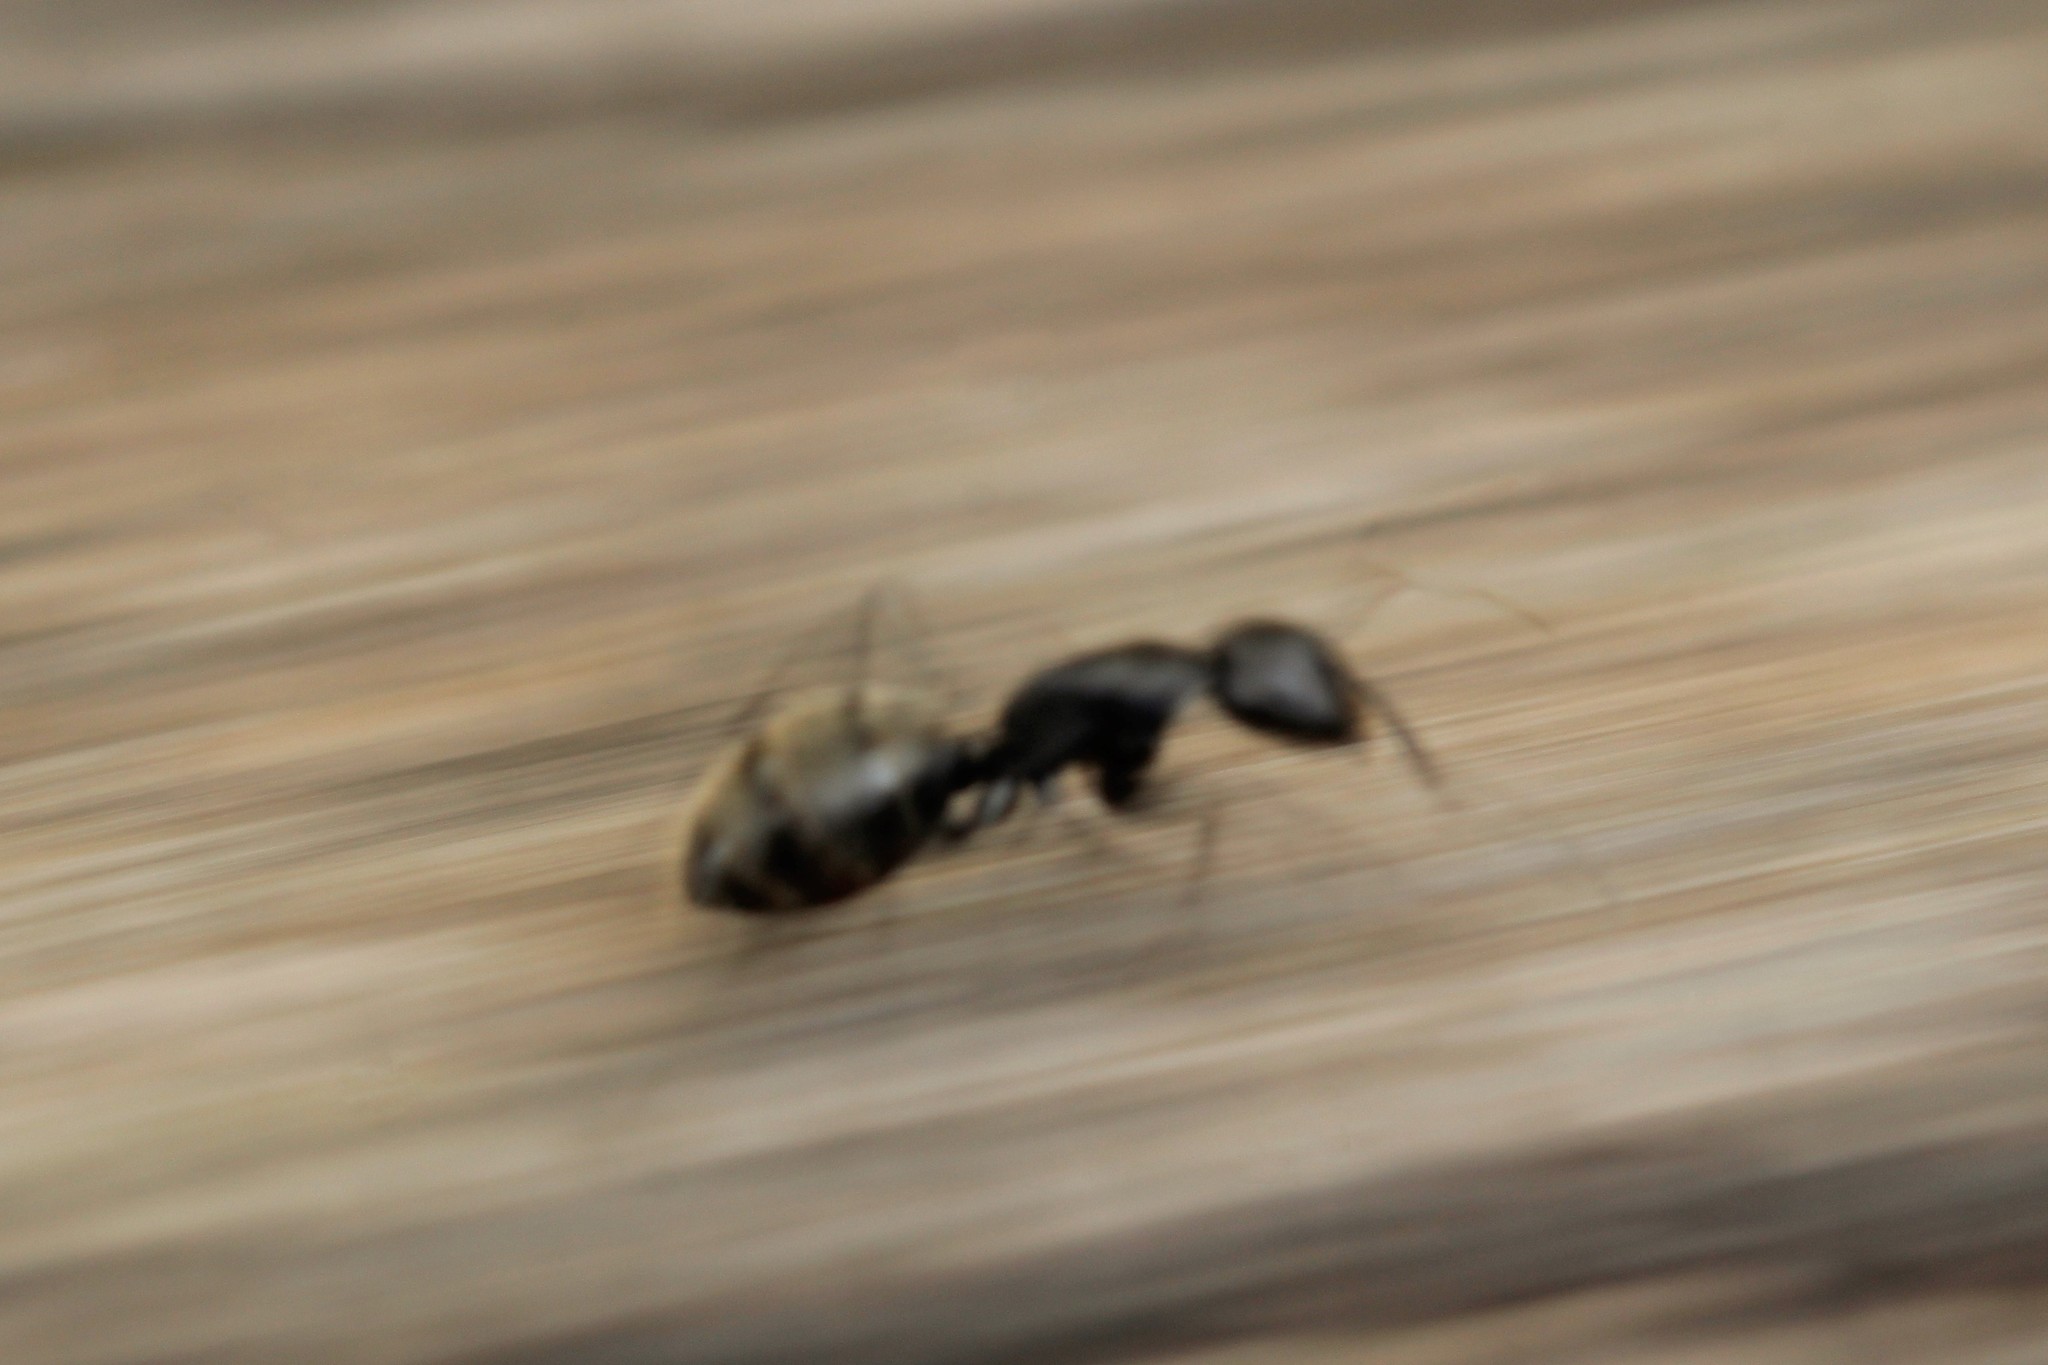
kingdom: Animalia
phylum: Arthropoda
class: Insecta
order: Hymenoptera
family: Formicidae
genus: Camponotus
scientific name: Camponotus vagus
